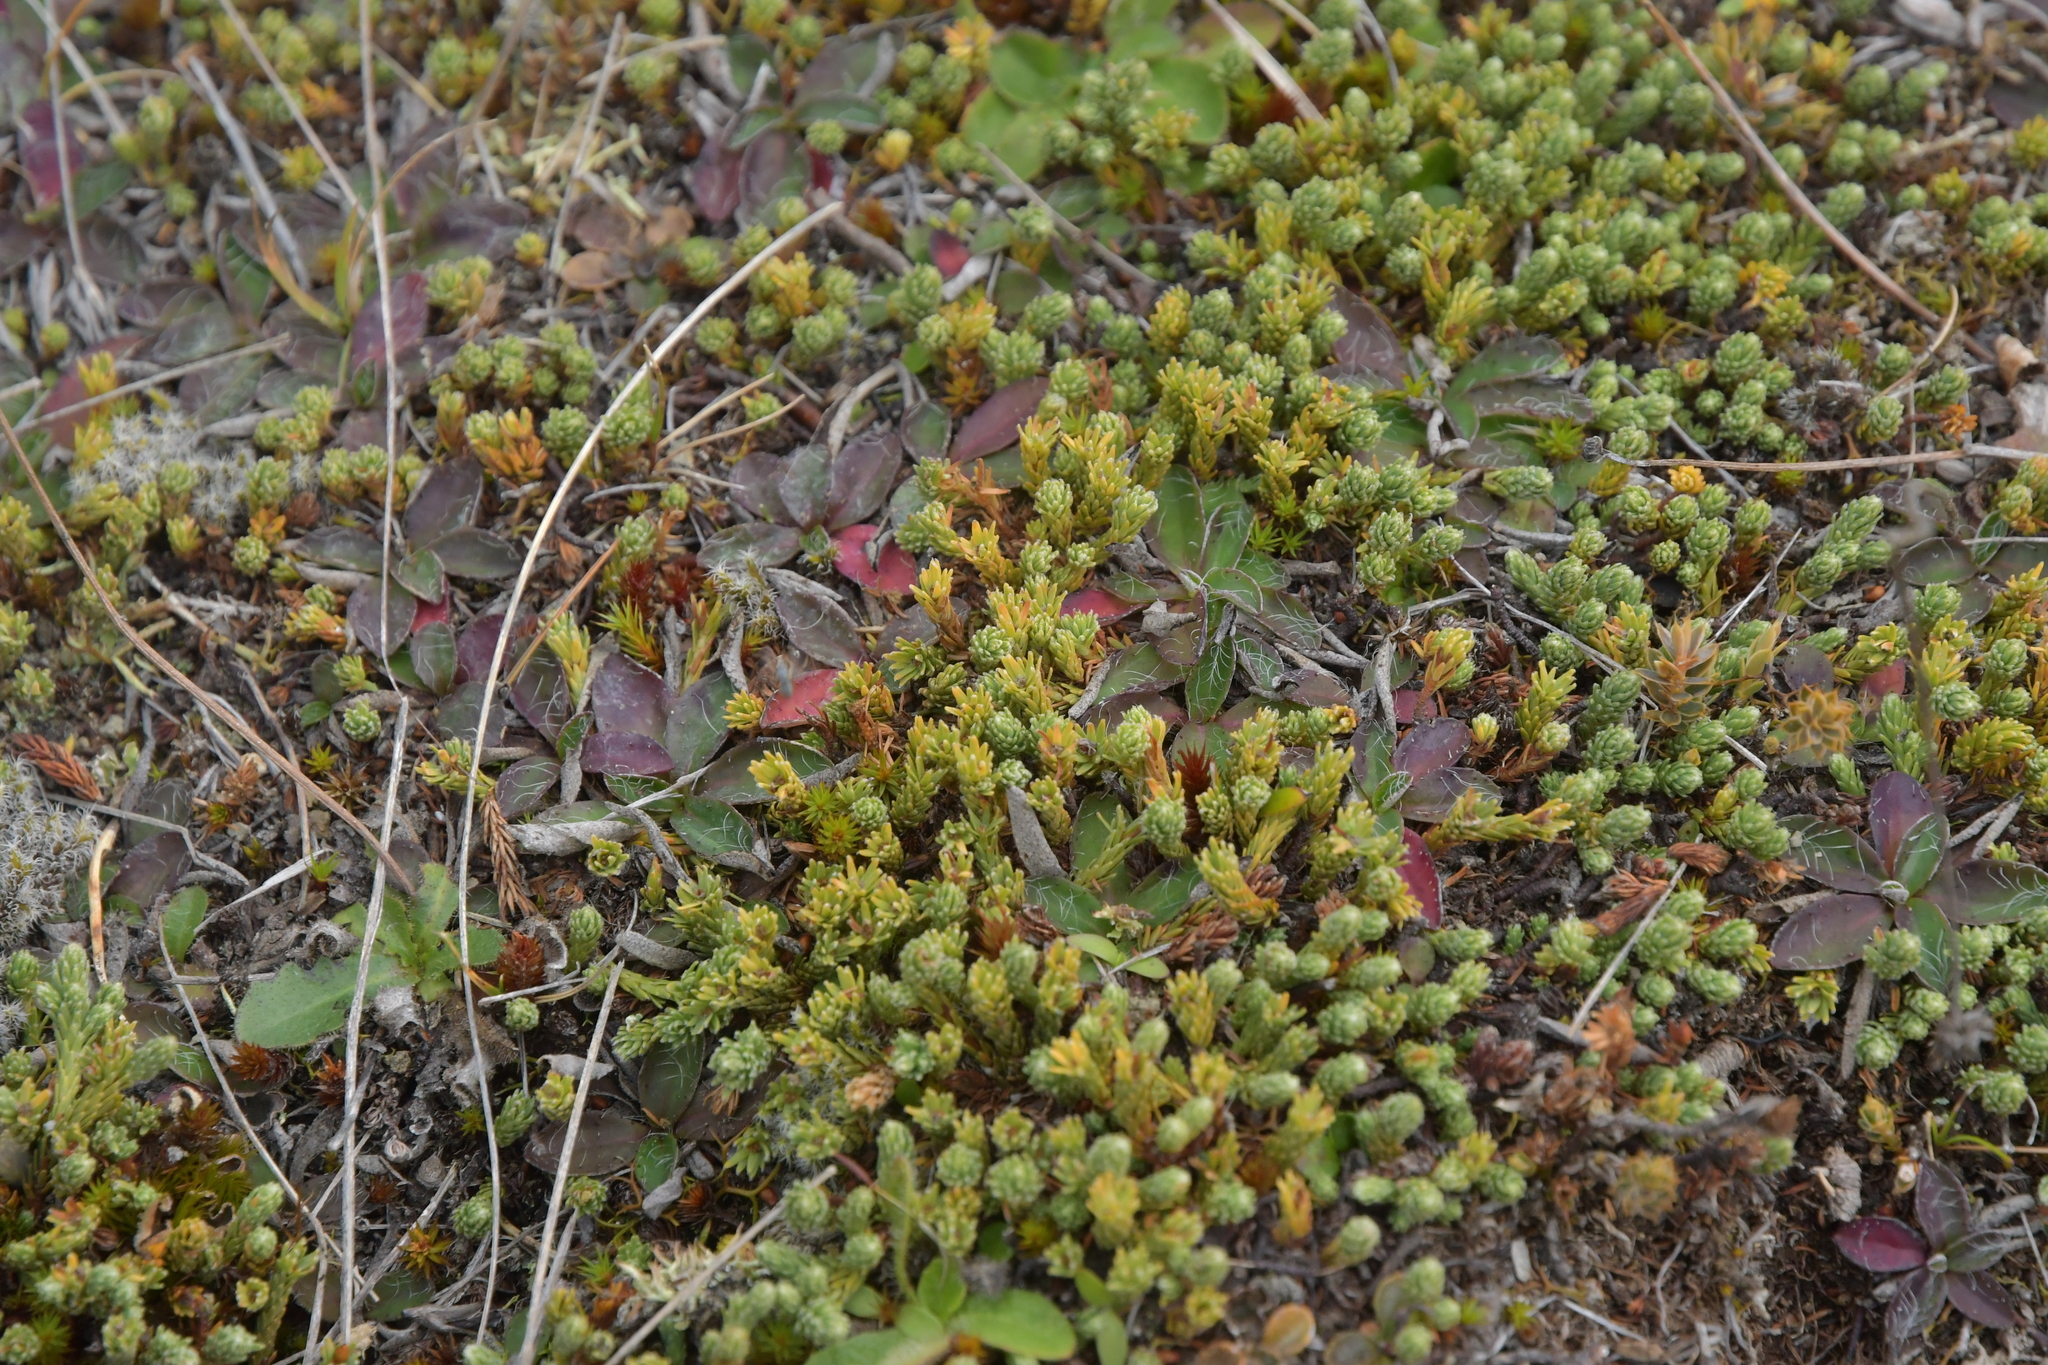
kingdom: Plantae
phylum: Tracheophyta
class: Magnoliopsida
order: Malvales
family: Thymelaeaceae
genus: Kelleria
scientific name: Kelleria dieffenbachii
